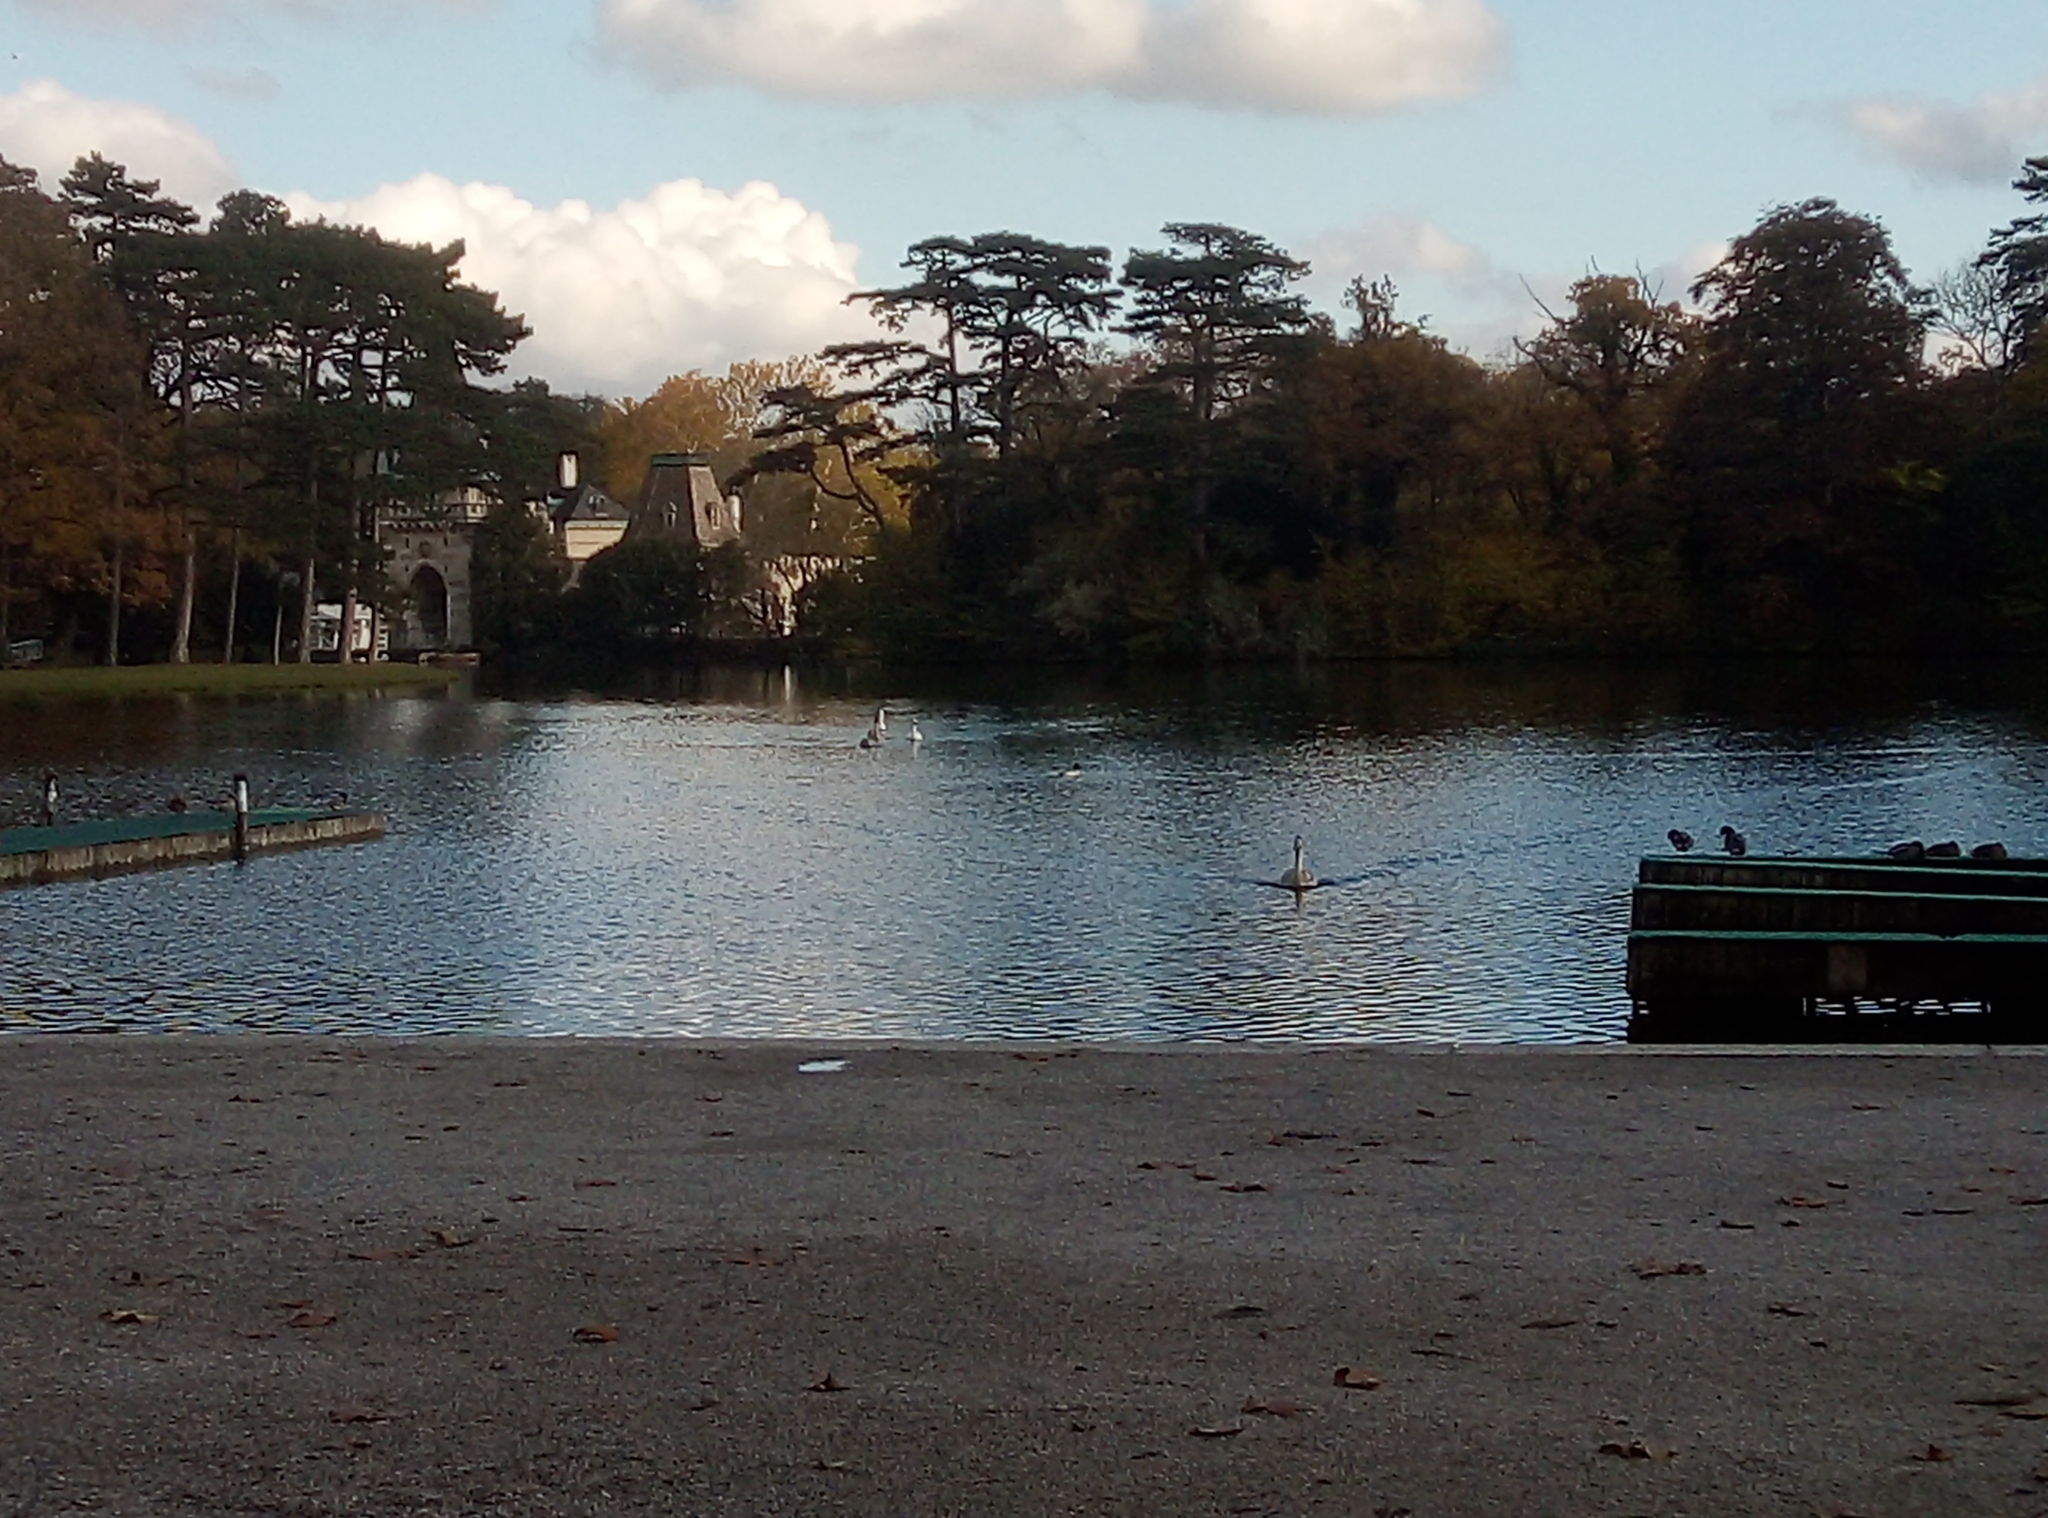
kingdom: Animalia
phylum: Chordata
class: Aves
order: Anseriformes
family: Anatidae
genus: Cygnus
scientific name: Cygnus olor
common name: Mute swan
